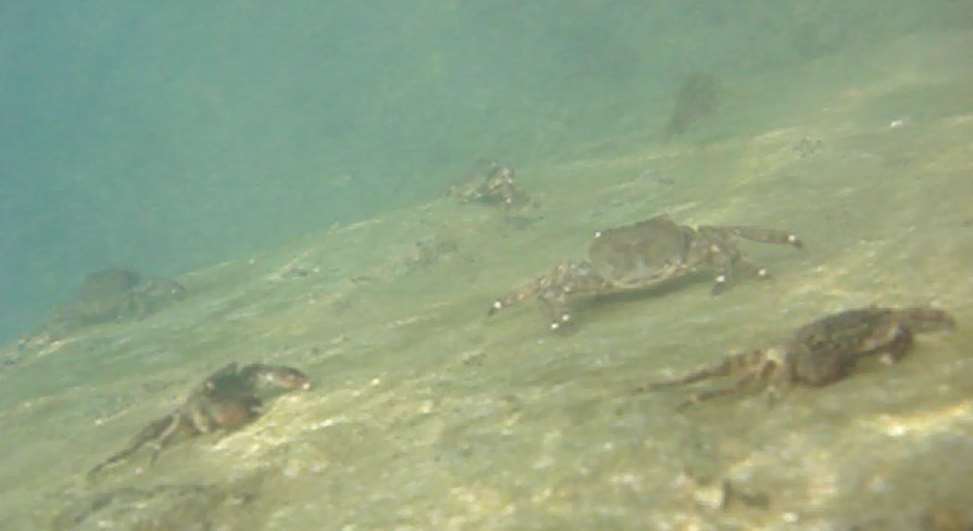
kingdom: Animalia
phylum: Arthropoda
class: Malacostraca
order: Decapoda
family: Grapsidae
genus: Pachygrapsus
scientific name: Pachygrapsus marmoratus
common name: Marbled rock crab
